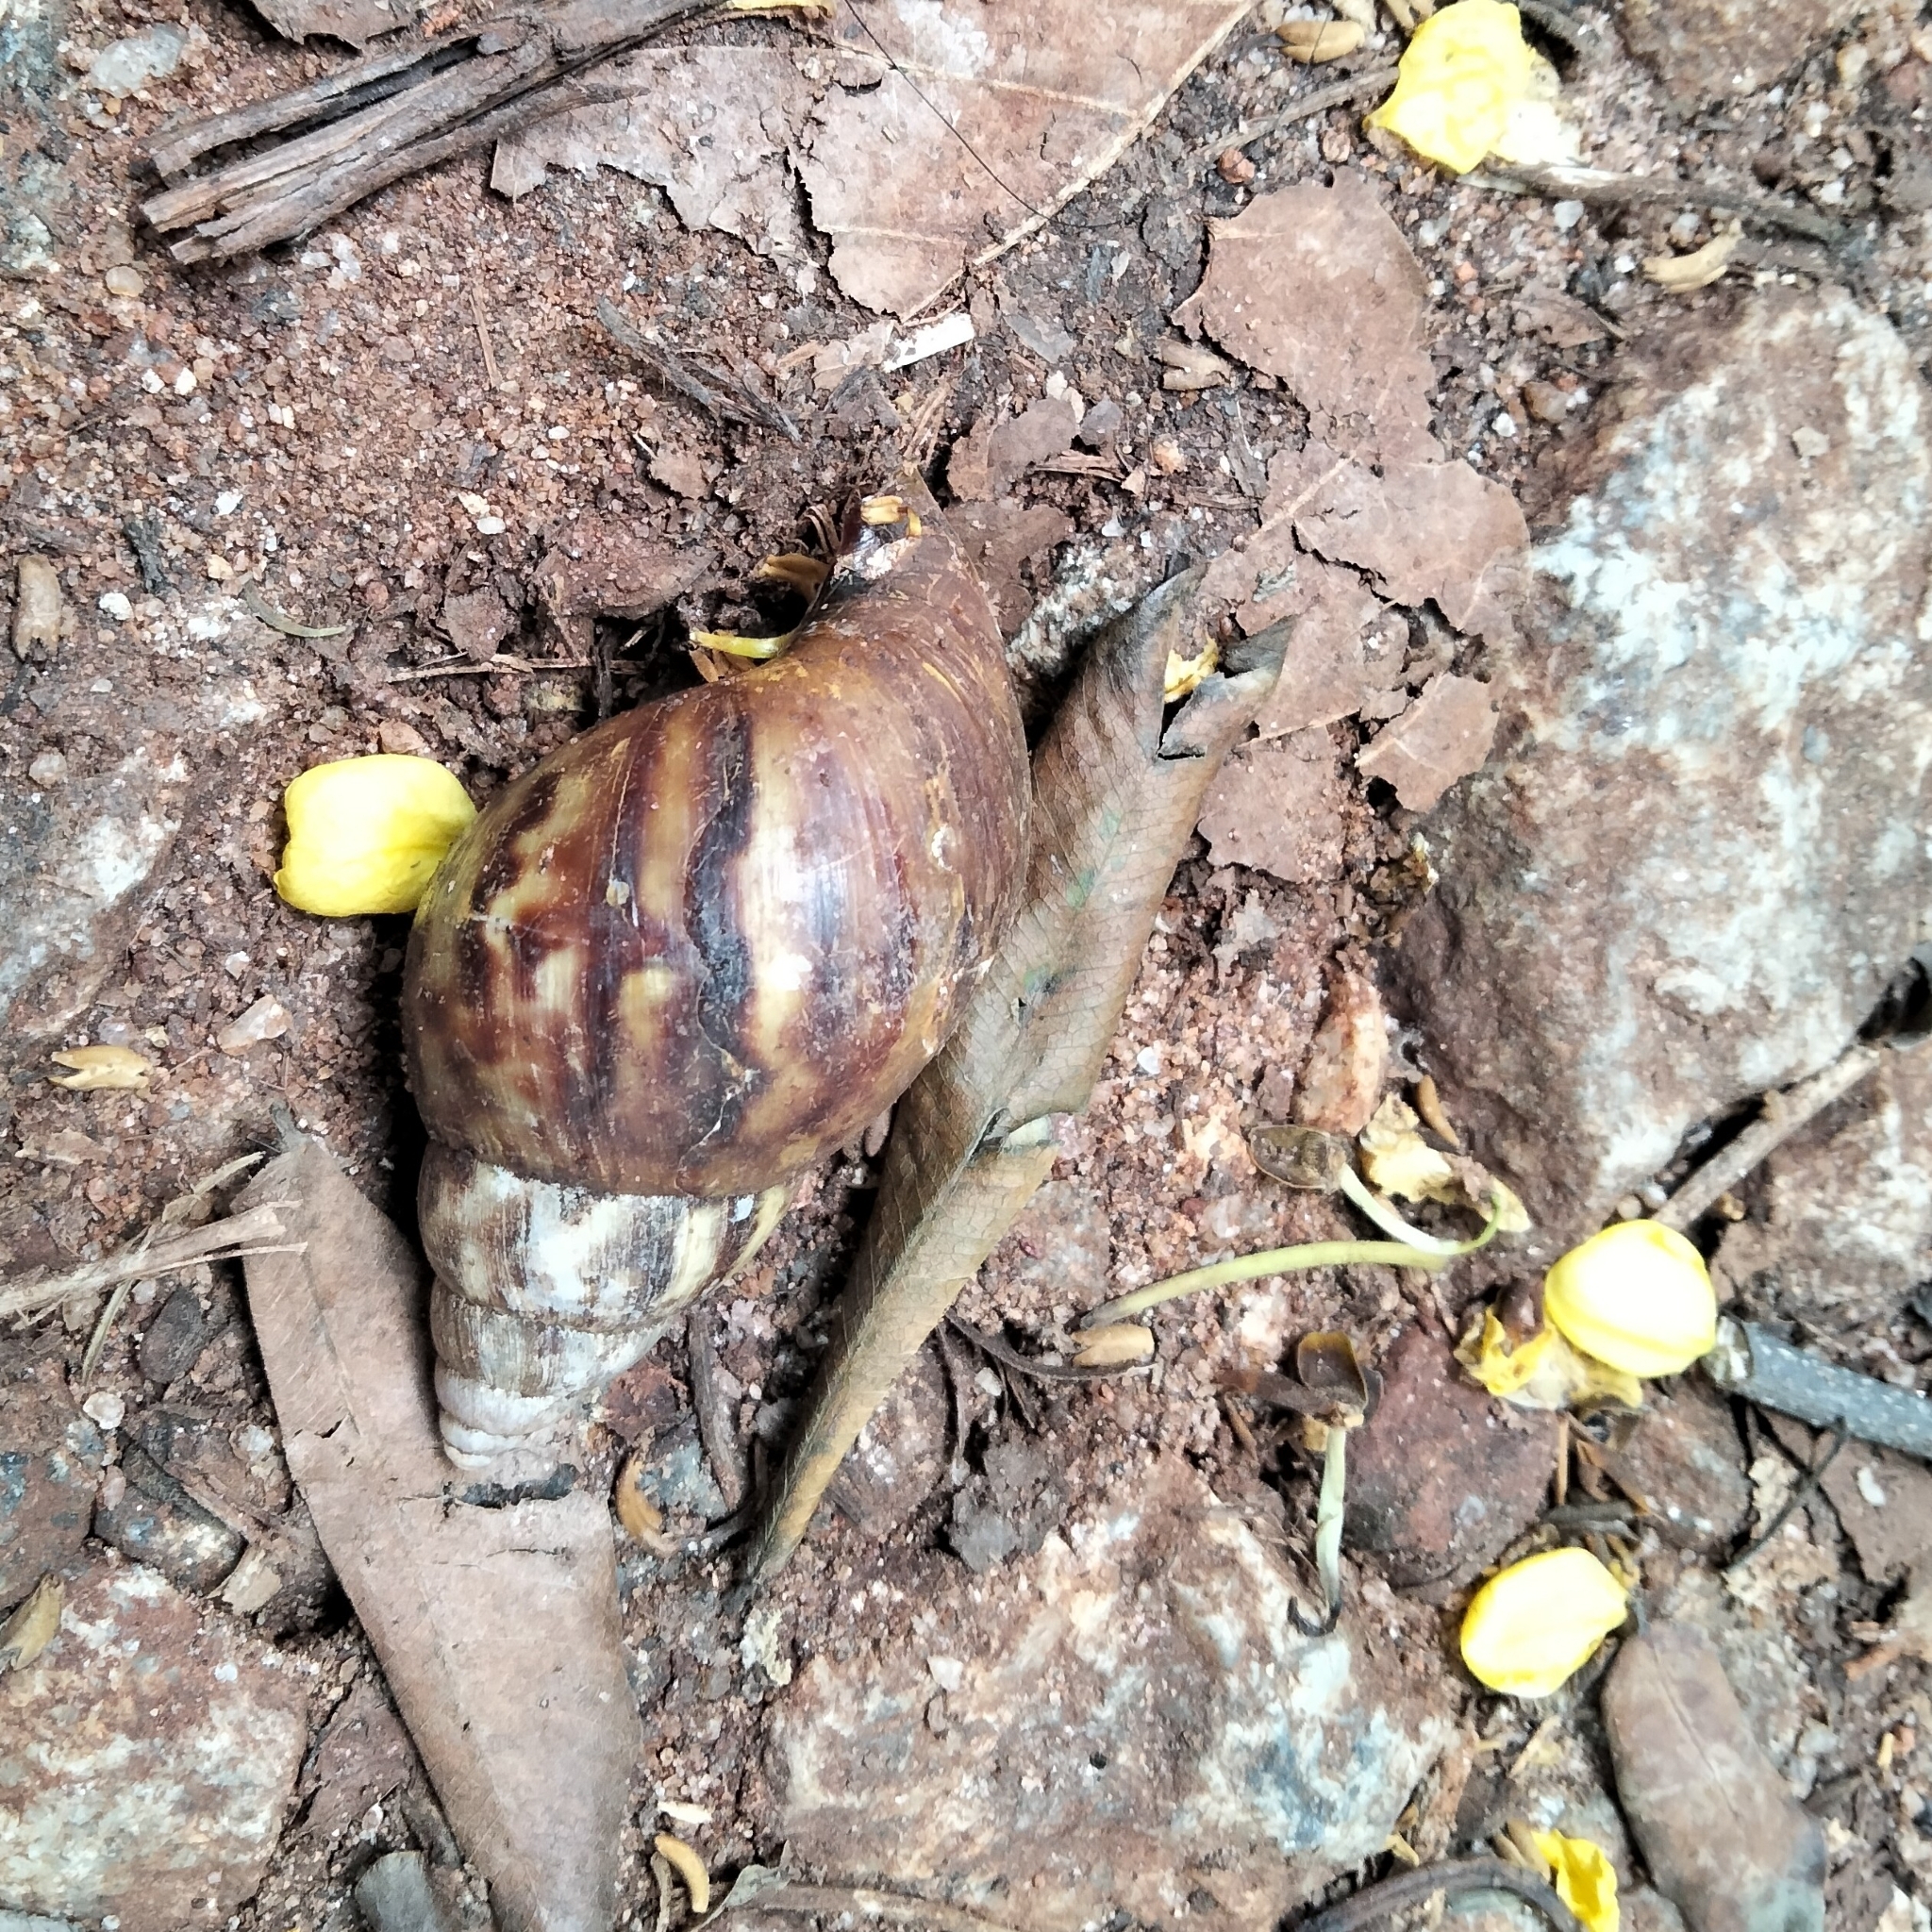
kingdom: Animalia
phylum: Mollusca
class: Gastropoda
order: Stylommatophora
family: Achatinidae
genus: Lissachatina
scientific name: Lissachatina fulica
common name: Giant african snail
